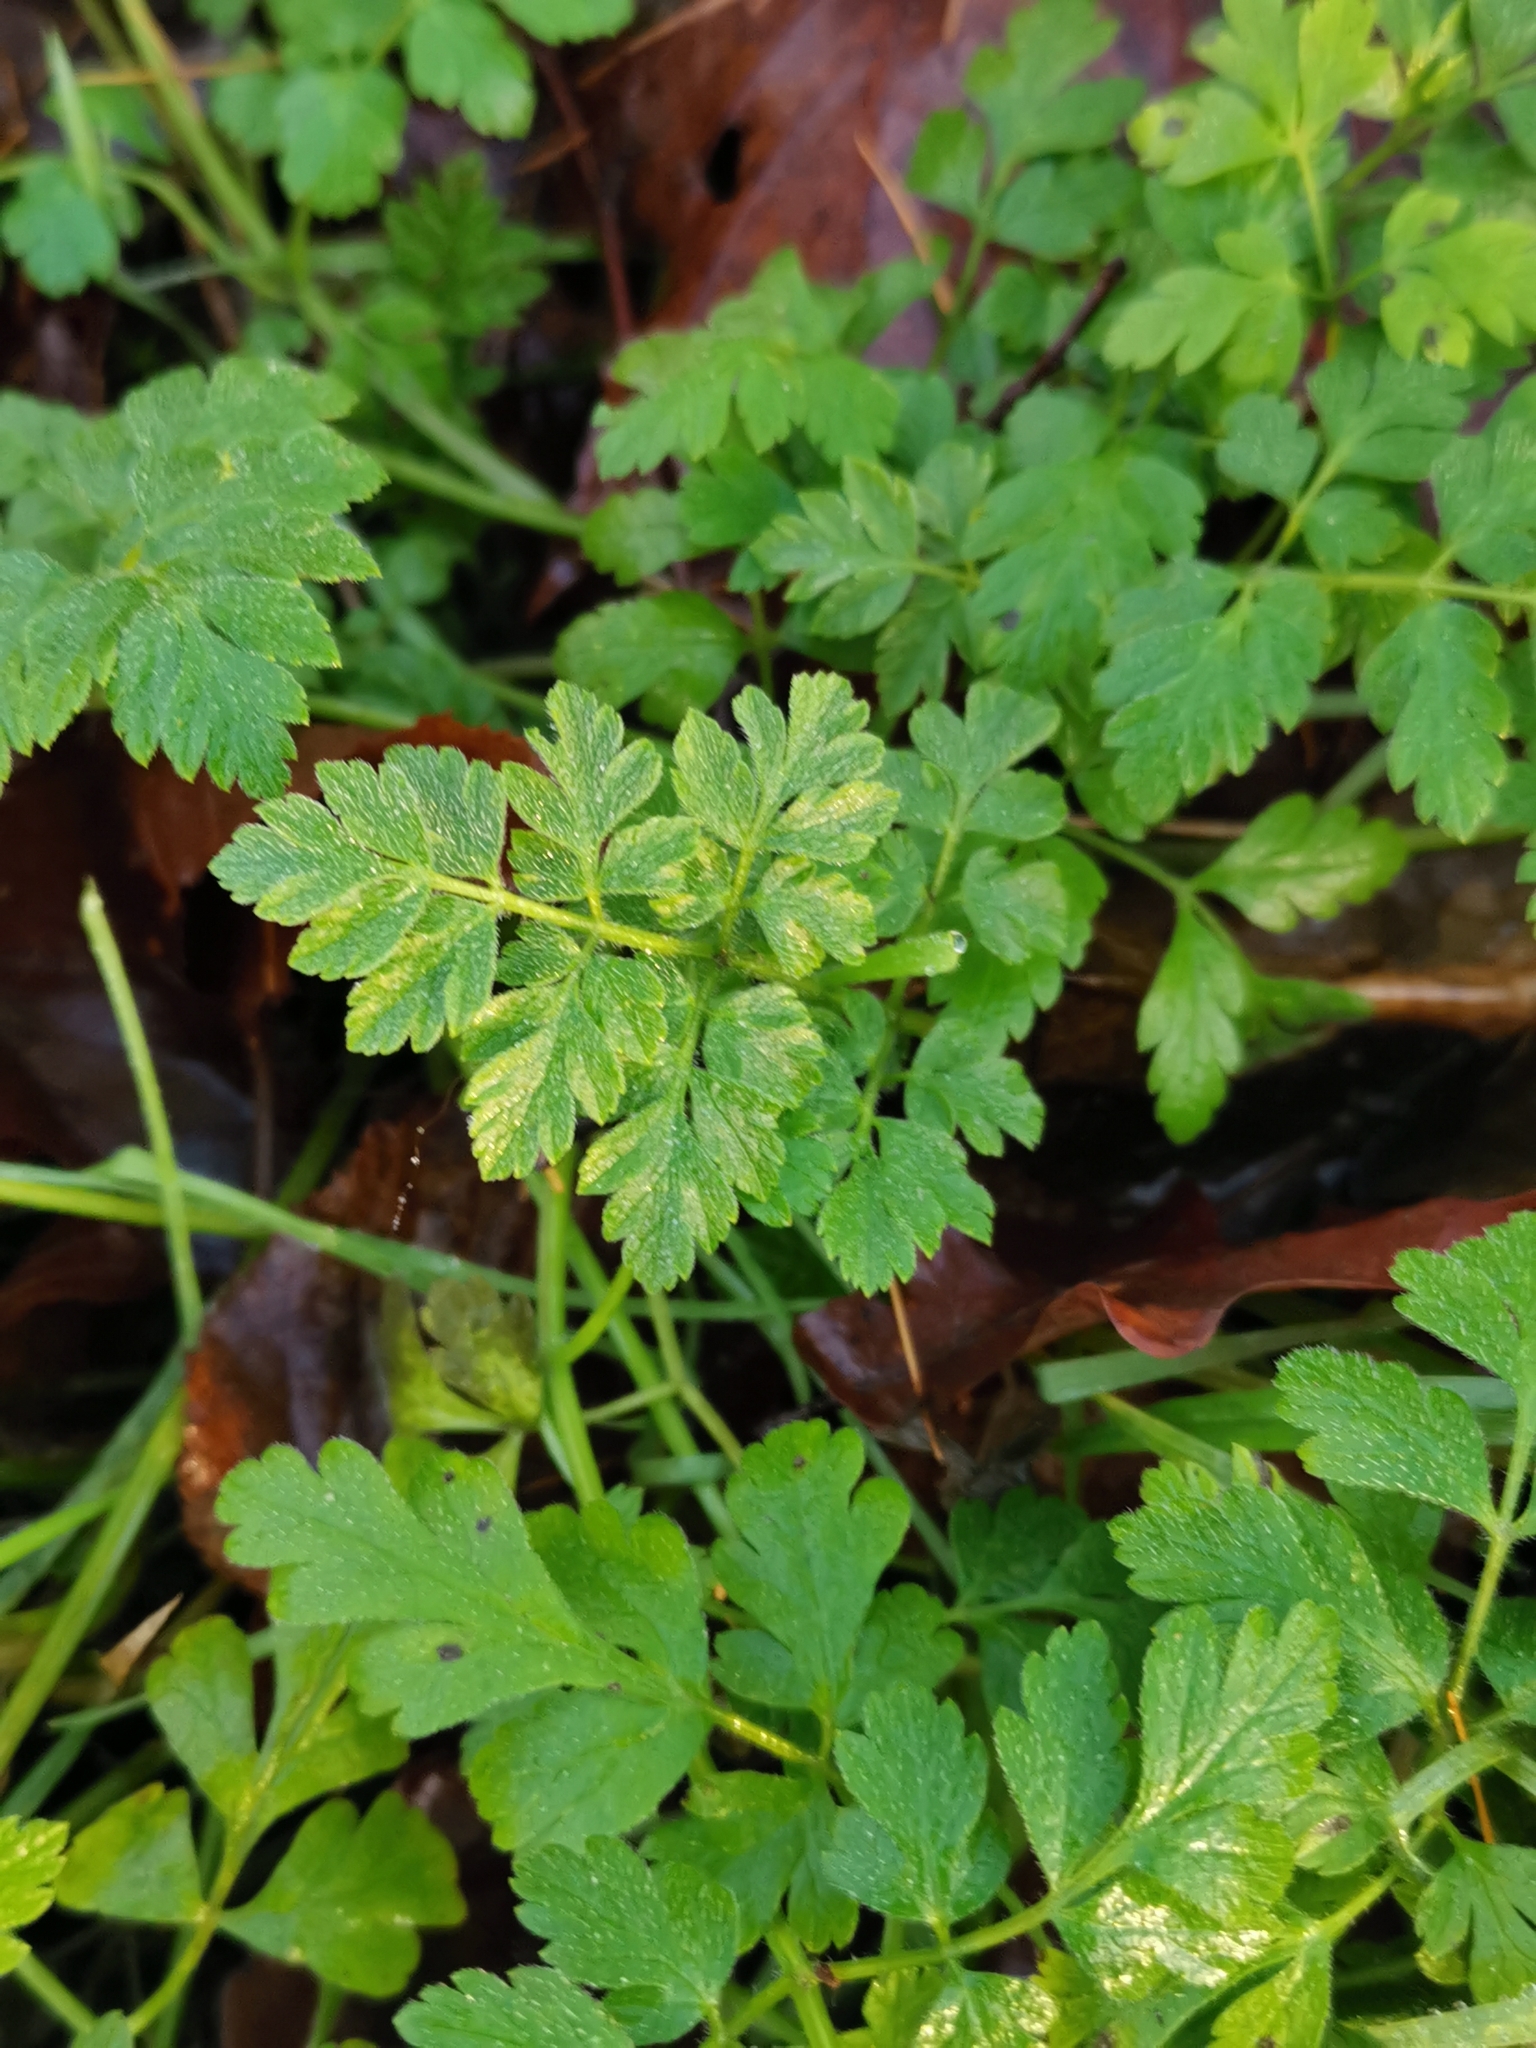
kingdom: Plantae
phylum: Tracheophyta
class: Magnoliopsida
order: Apiales
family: Apiaceae
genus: Chaerophyllum
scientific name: Chaerophyllum temulum
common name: Rough chervil
